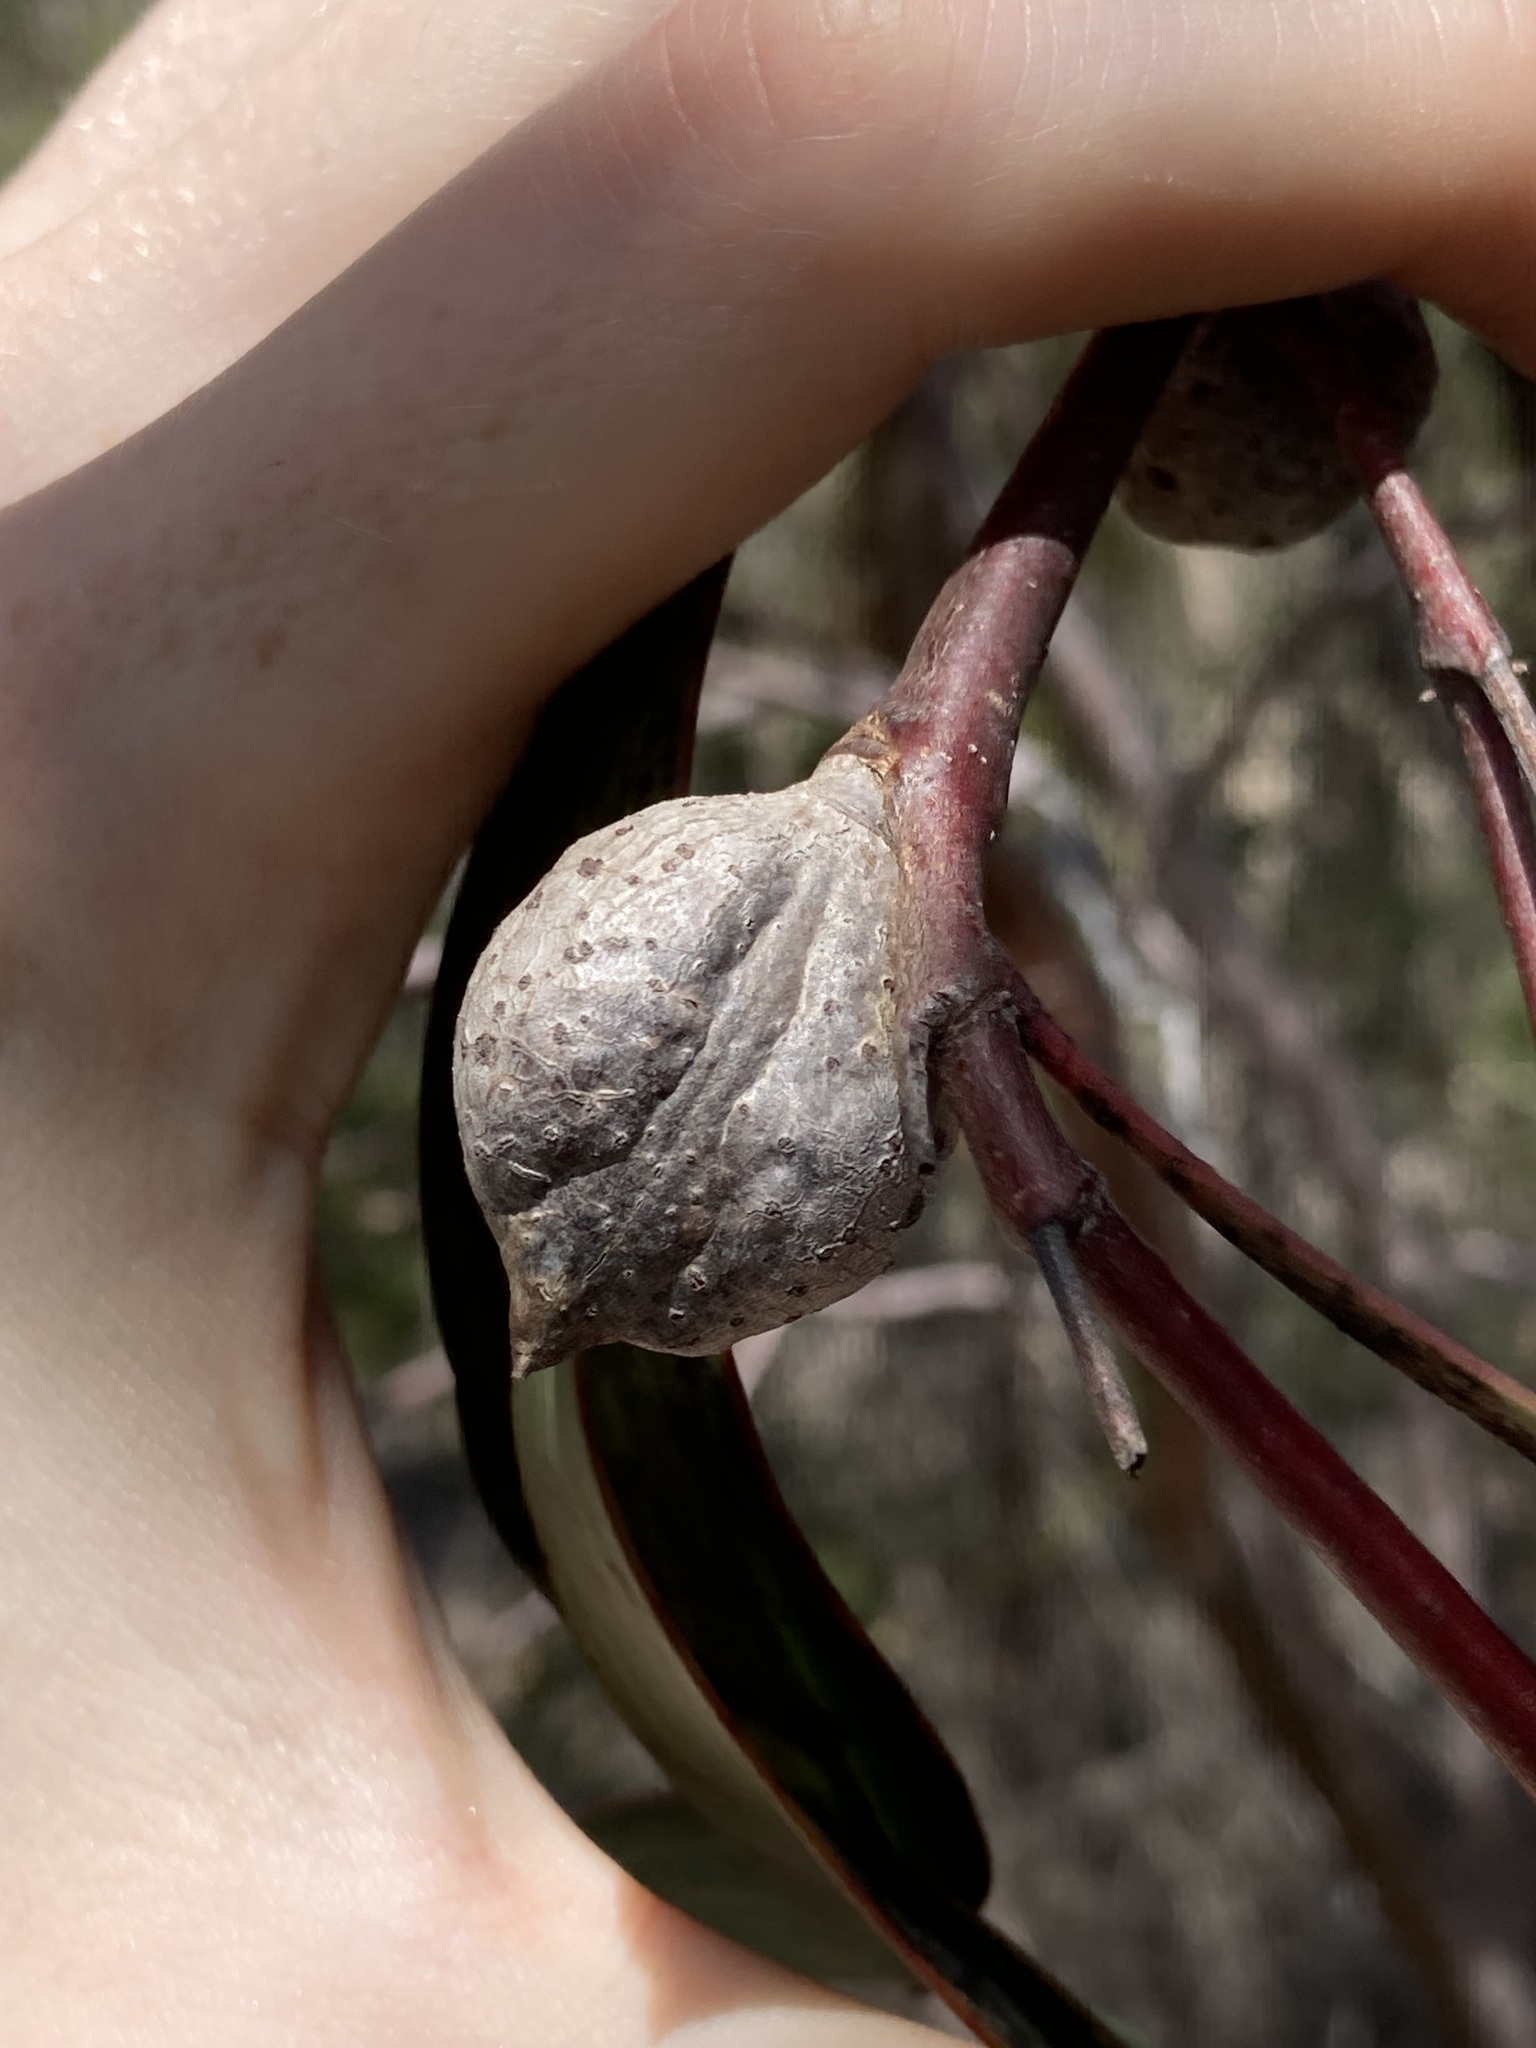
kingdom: Plantae
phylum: Tracheophyta
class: Magnoliopsida
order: Proteales
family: Proteaceae
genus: Hakea
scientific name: Hakea laurina
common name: Cushion hakea
